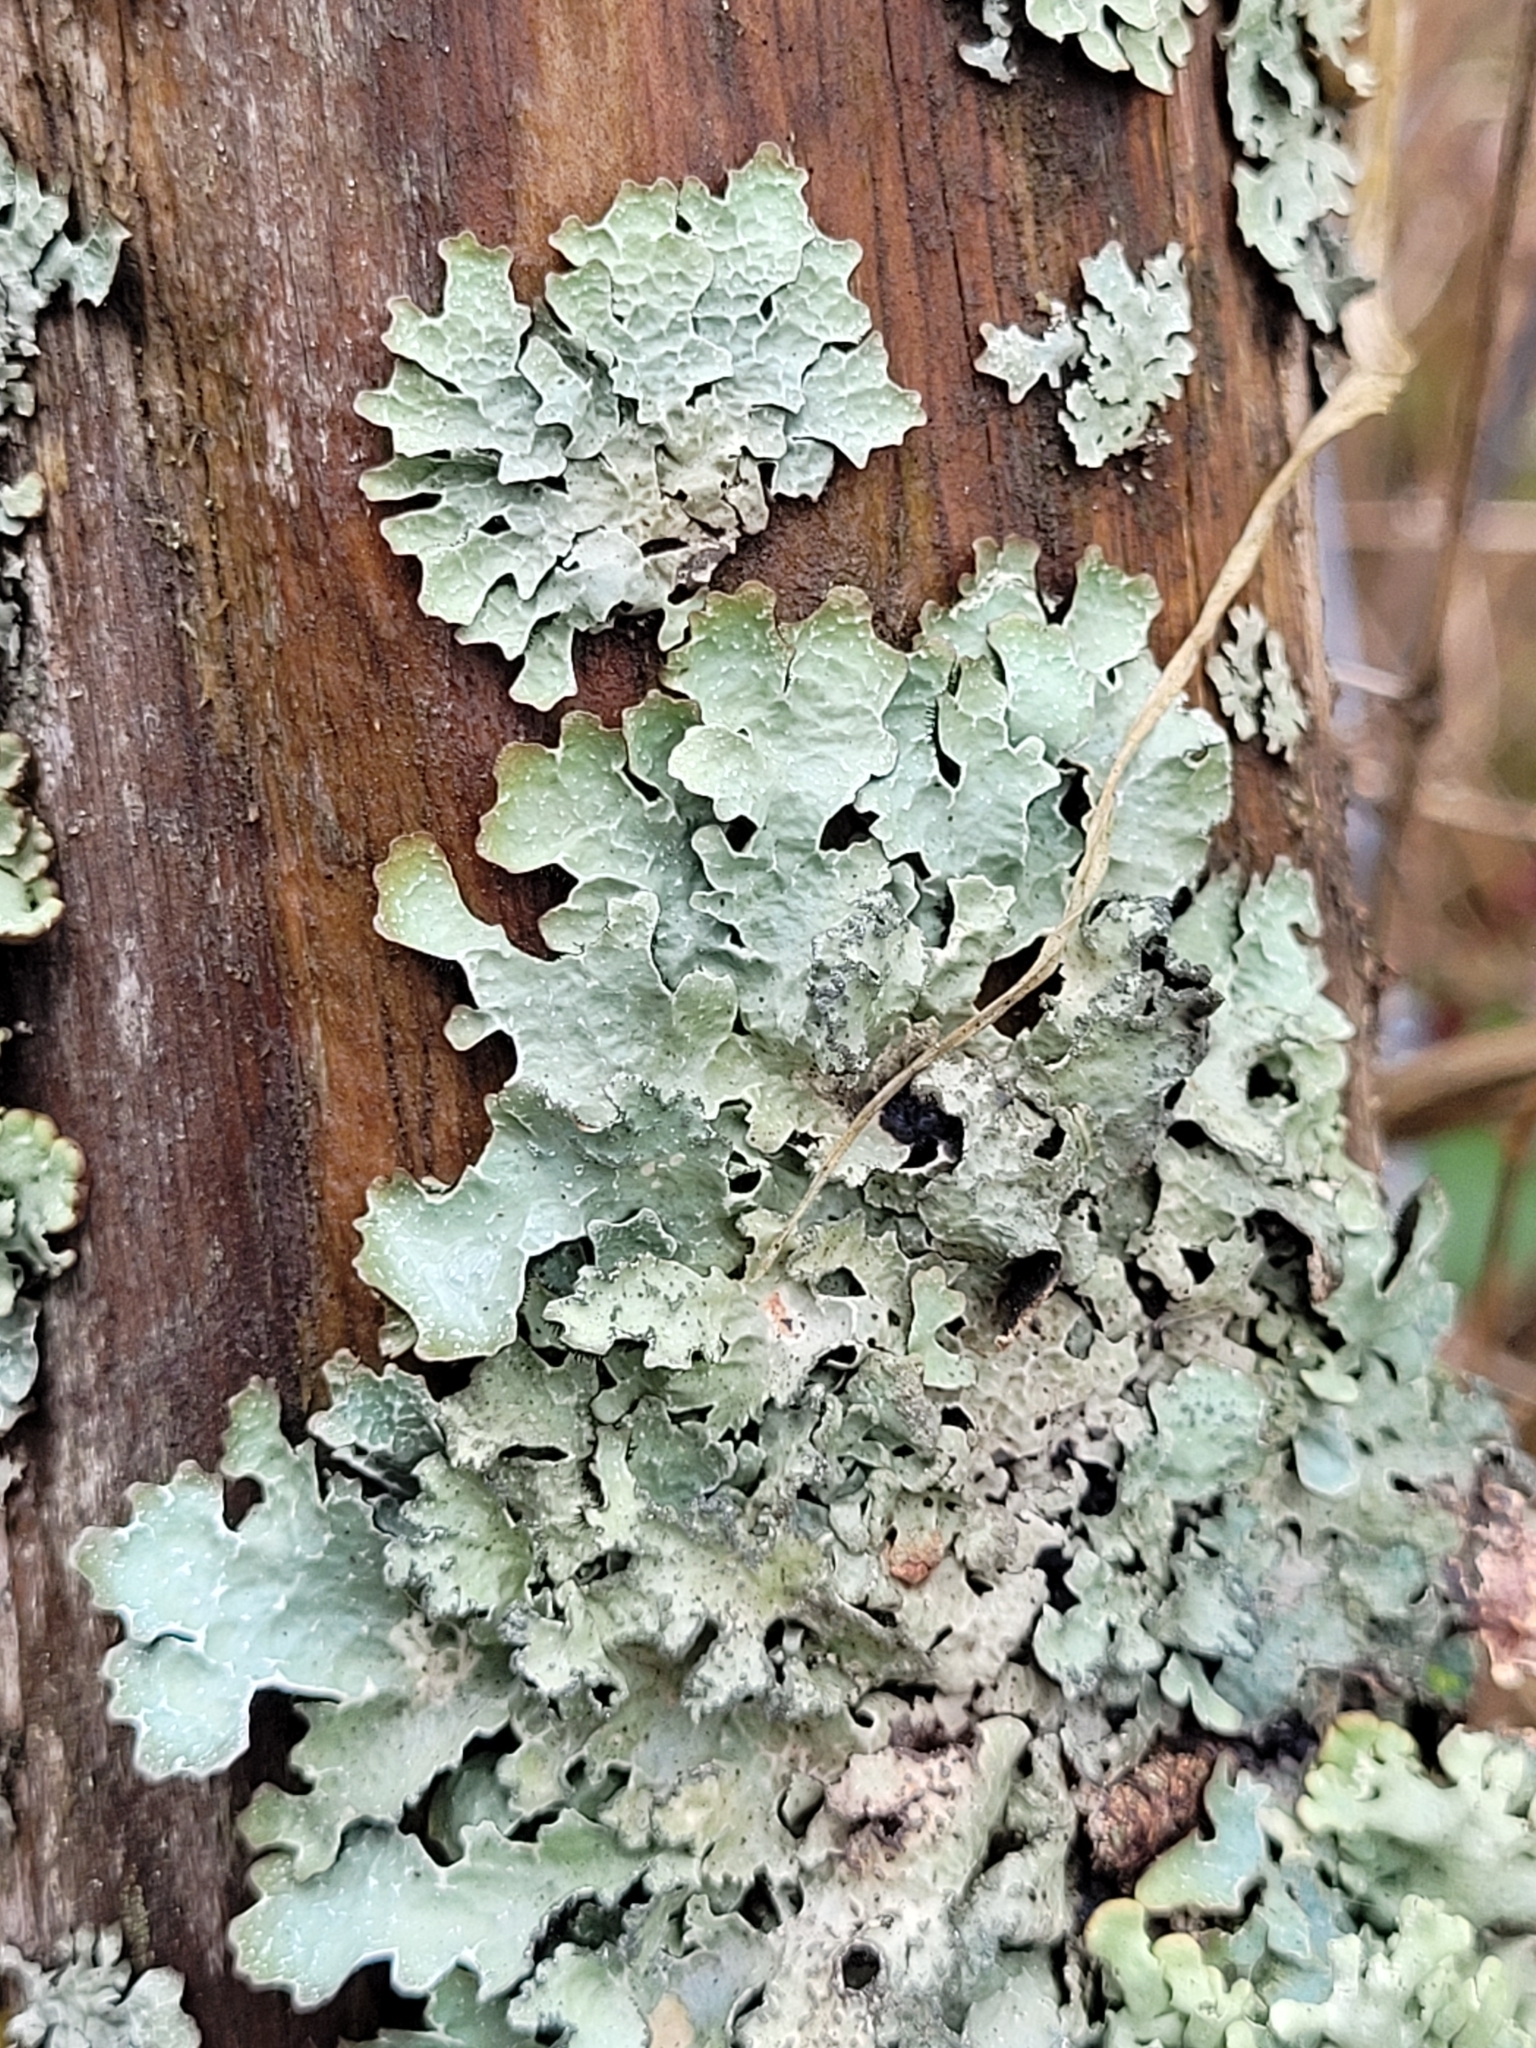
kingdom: Fungi
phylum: Ascomycota
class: Lecanoromycetes
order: Lecanorales
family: Parmeliaceae
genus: Parmelia
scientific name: Parmelia sulcata
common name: Netted shield lichen
